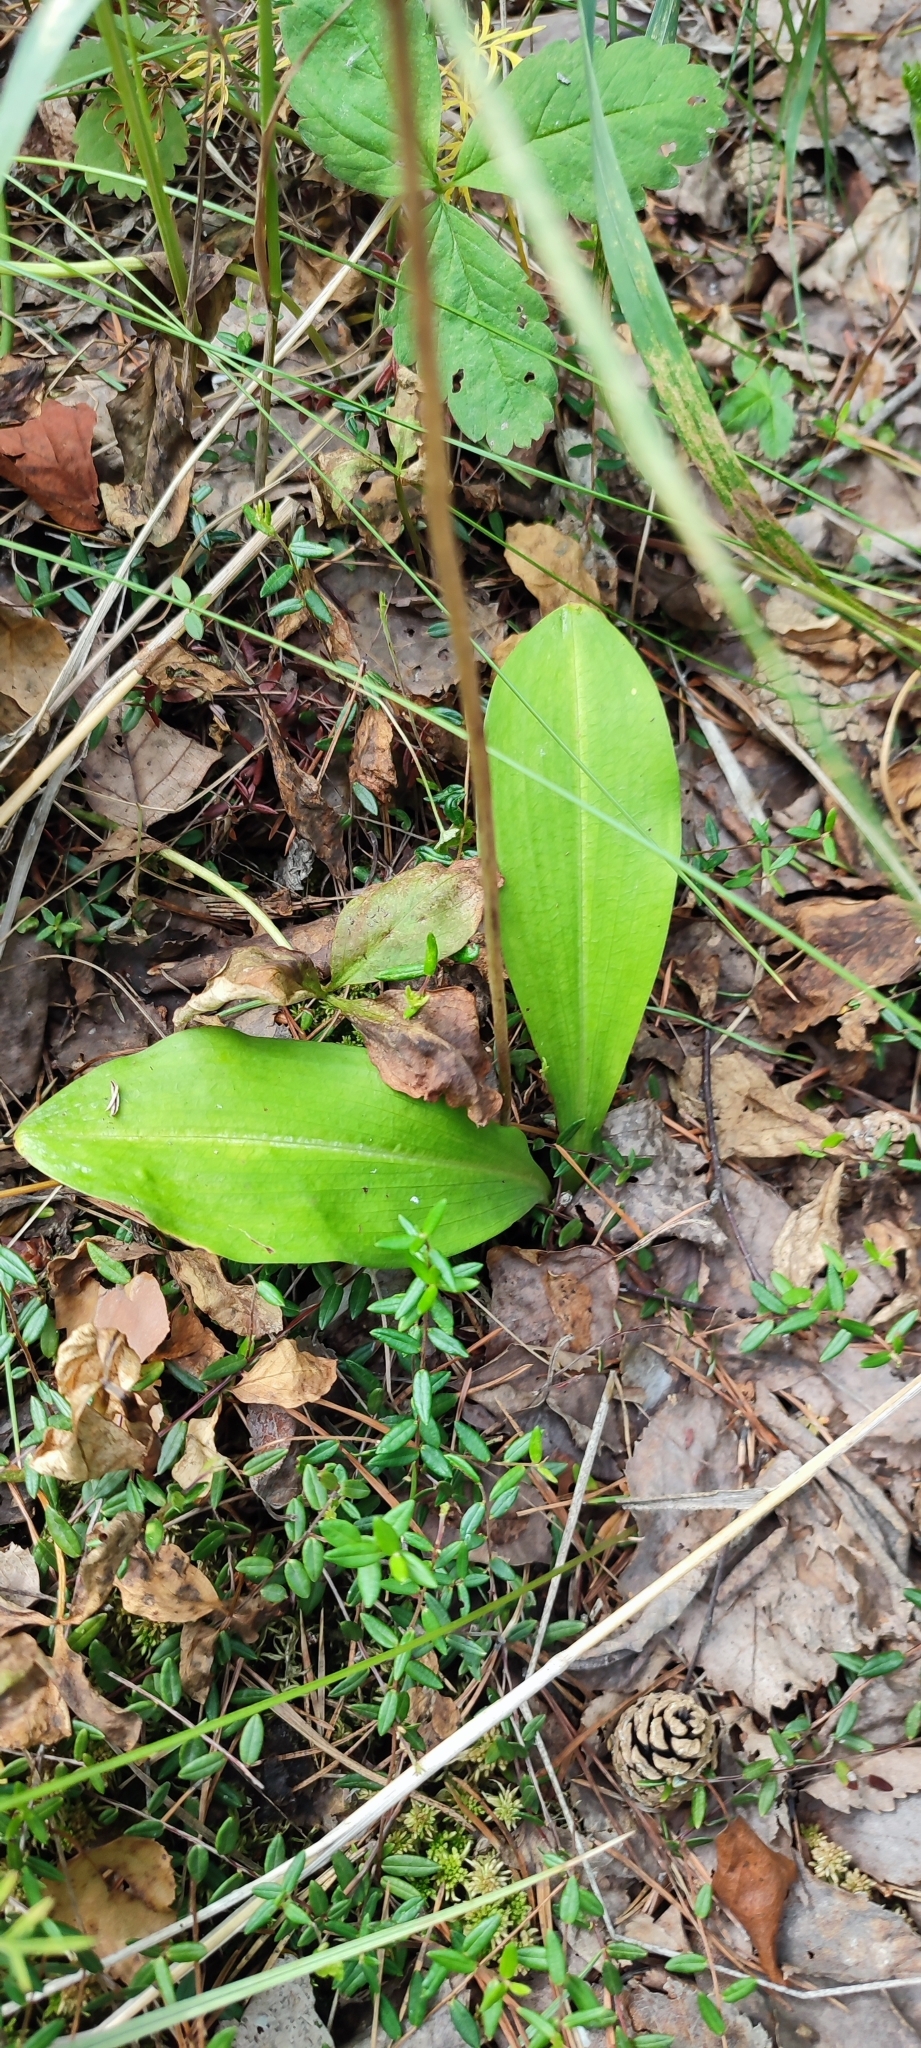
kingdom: Plantae
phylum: Tracheophyta
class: Liliopsida
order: Asparagales
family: Orchidaceae
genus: Platanthera
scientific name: Platanthera bifolia
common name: Lesser butterfly-orchid
